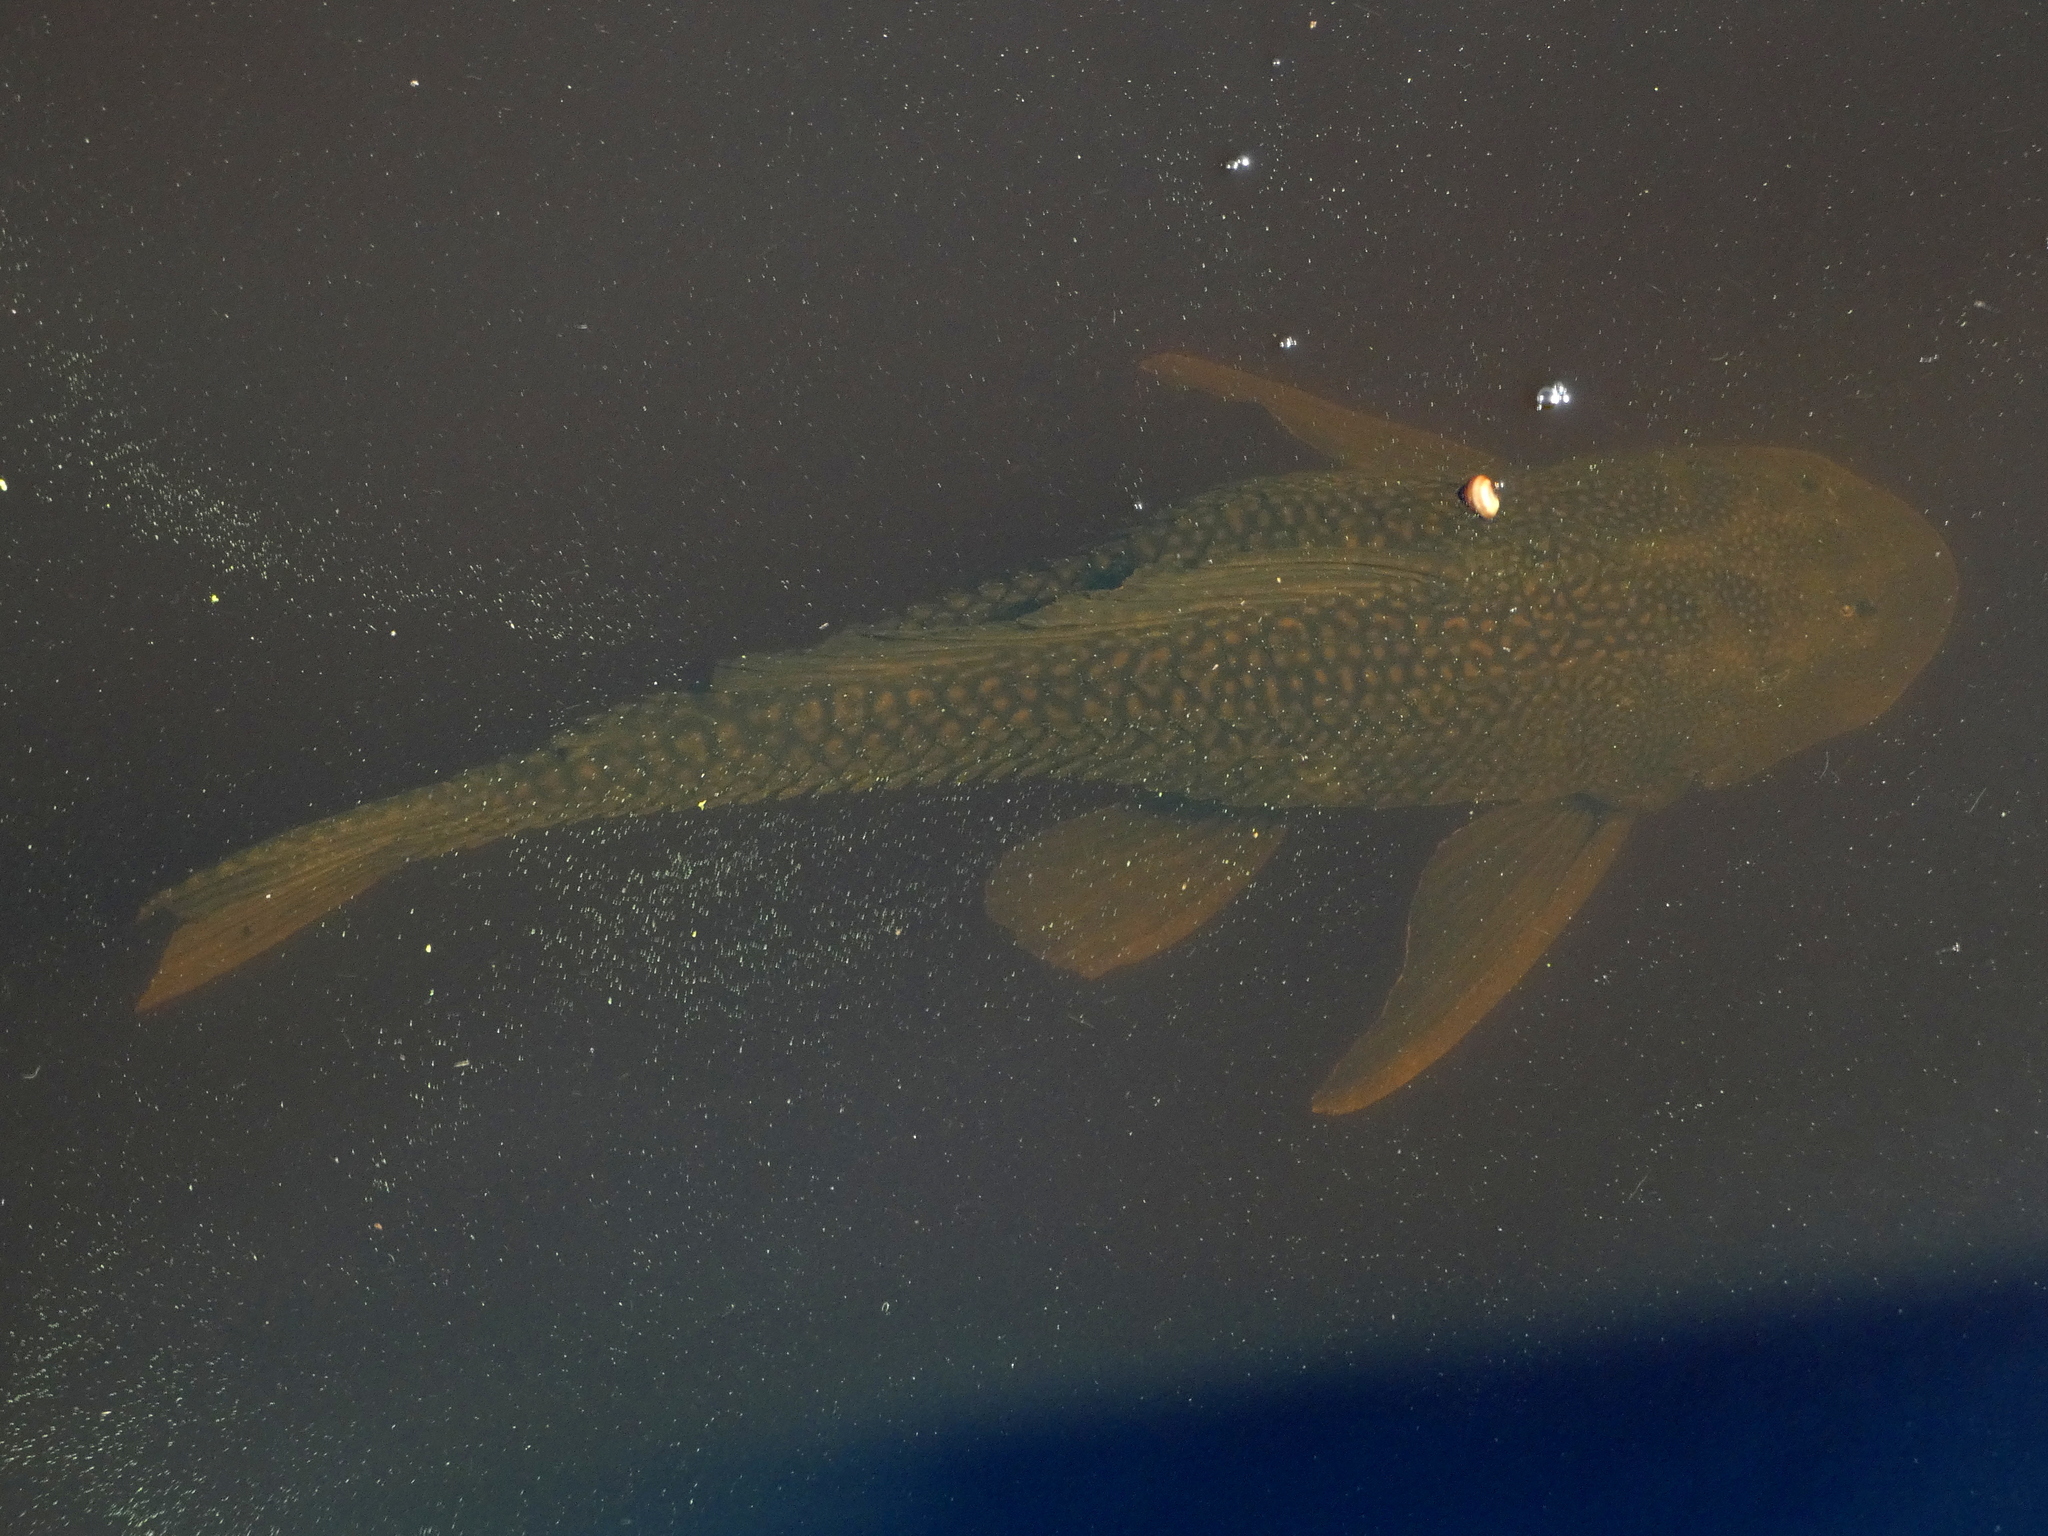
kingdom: Animalia
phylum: Chordata
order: Siluriformes
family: Loricariidae
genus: Pterygoplichthys
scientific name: Pterygoplichthys
